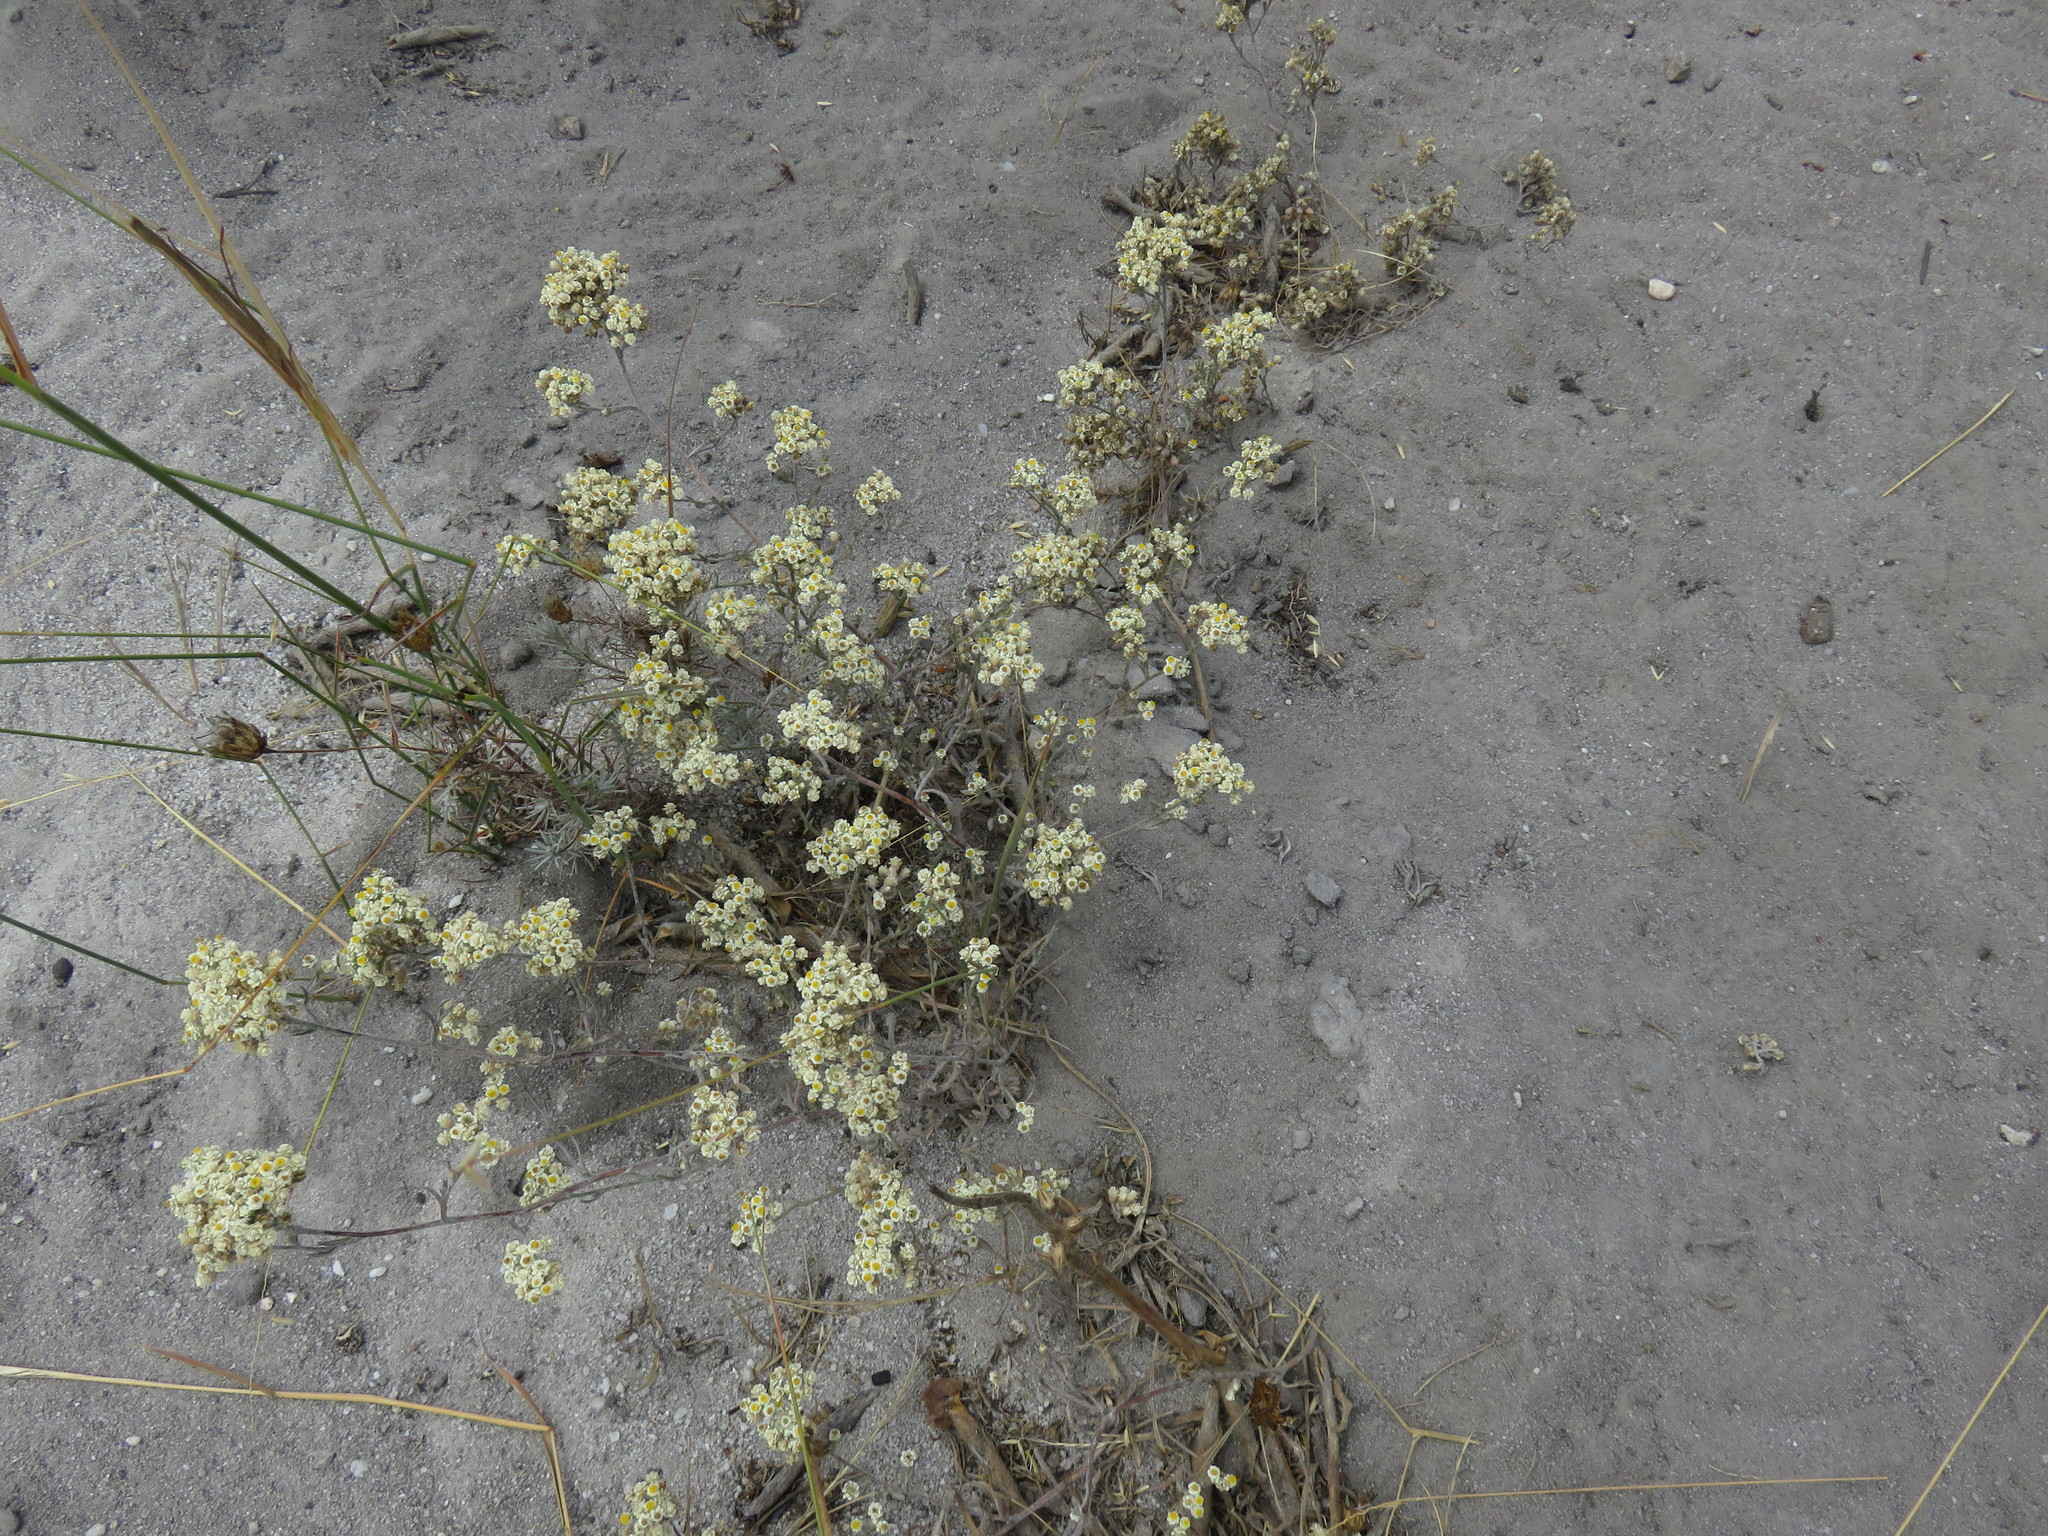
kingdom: Plantae
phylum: Tracheophyta
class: Magnoliopsida
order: Asterales
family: Asteraceae
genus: Helichrysum
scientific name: Helichrysum indicum
